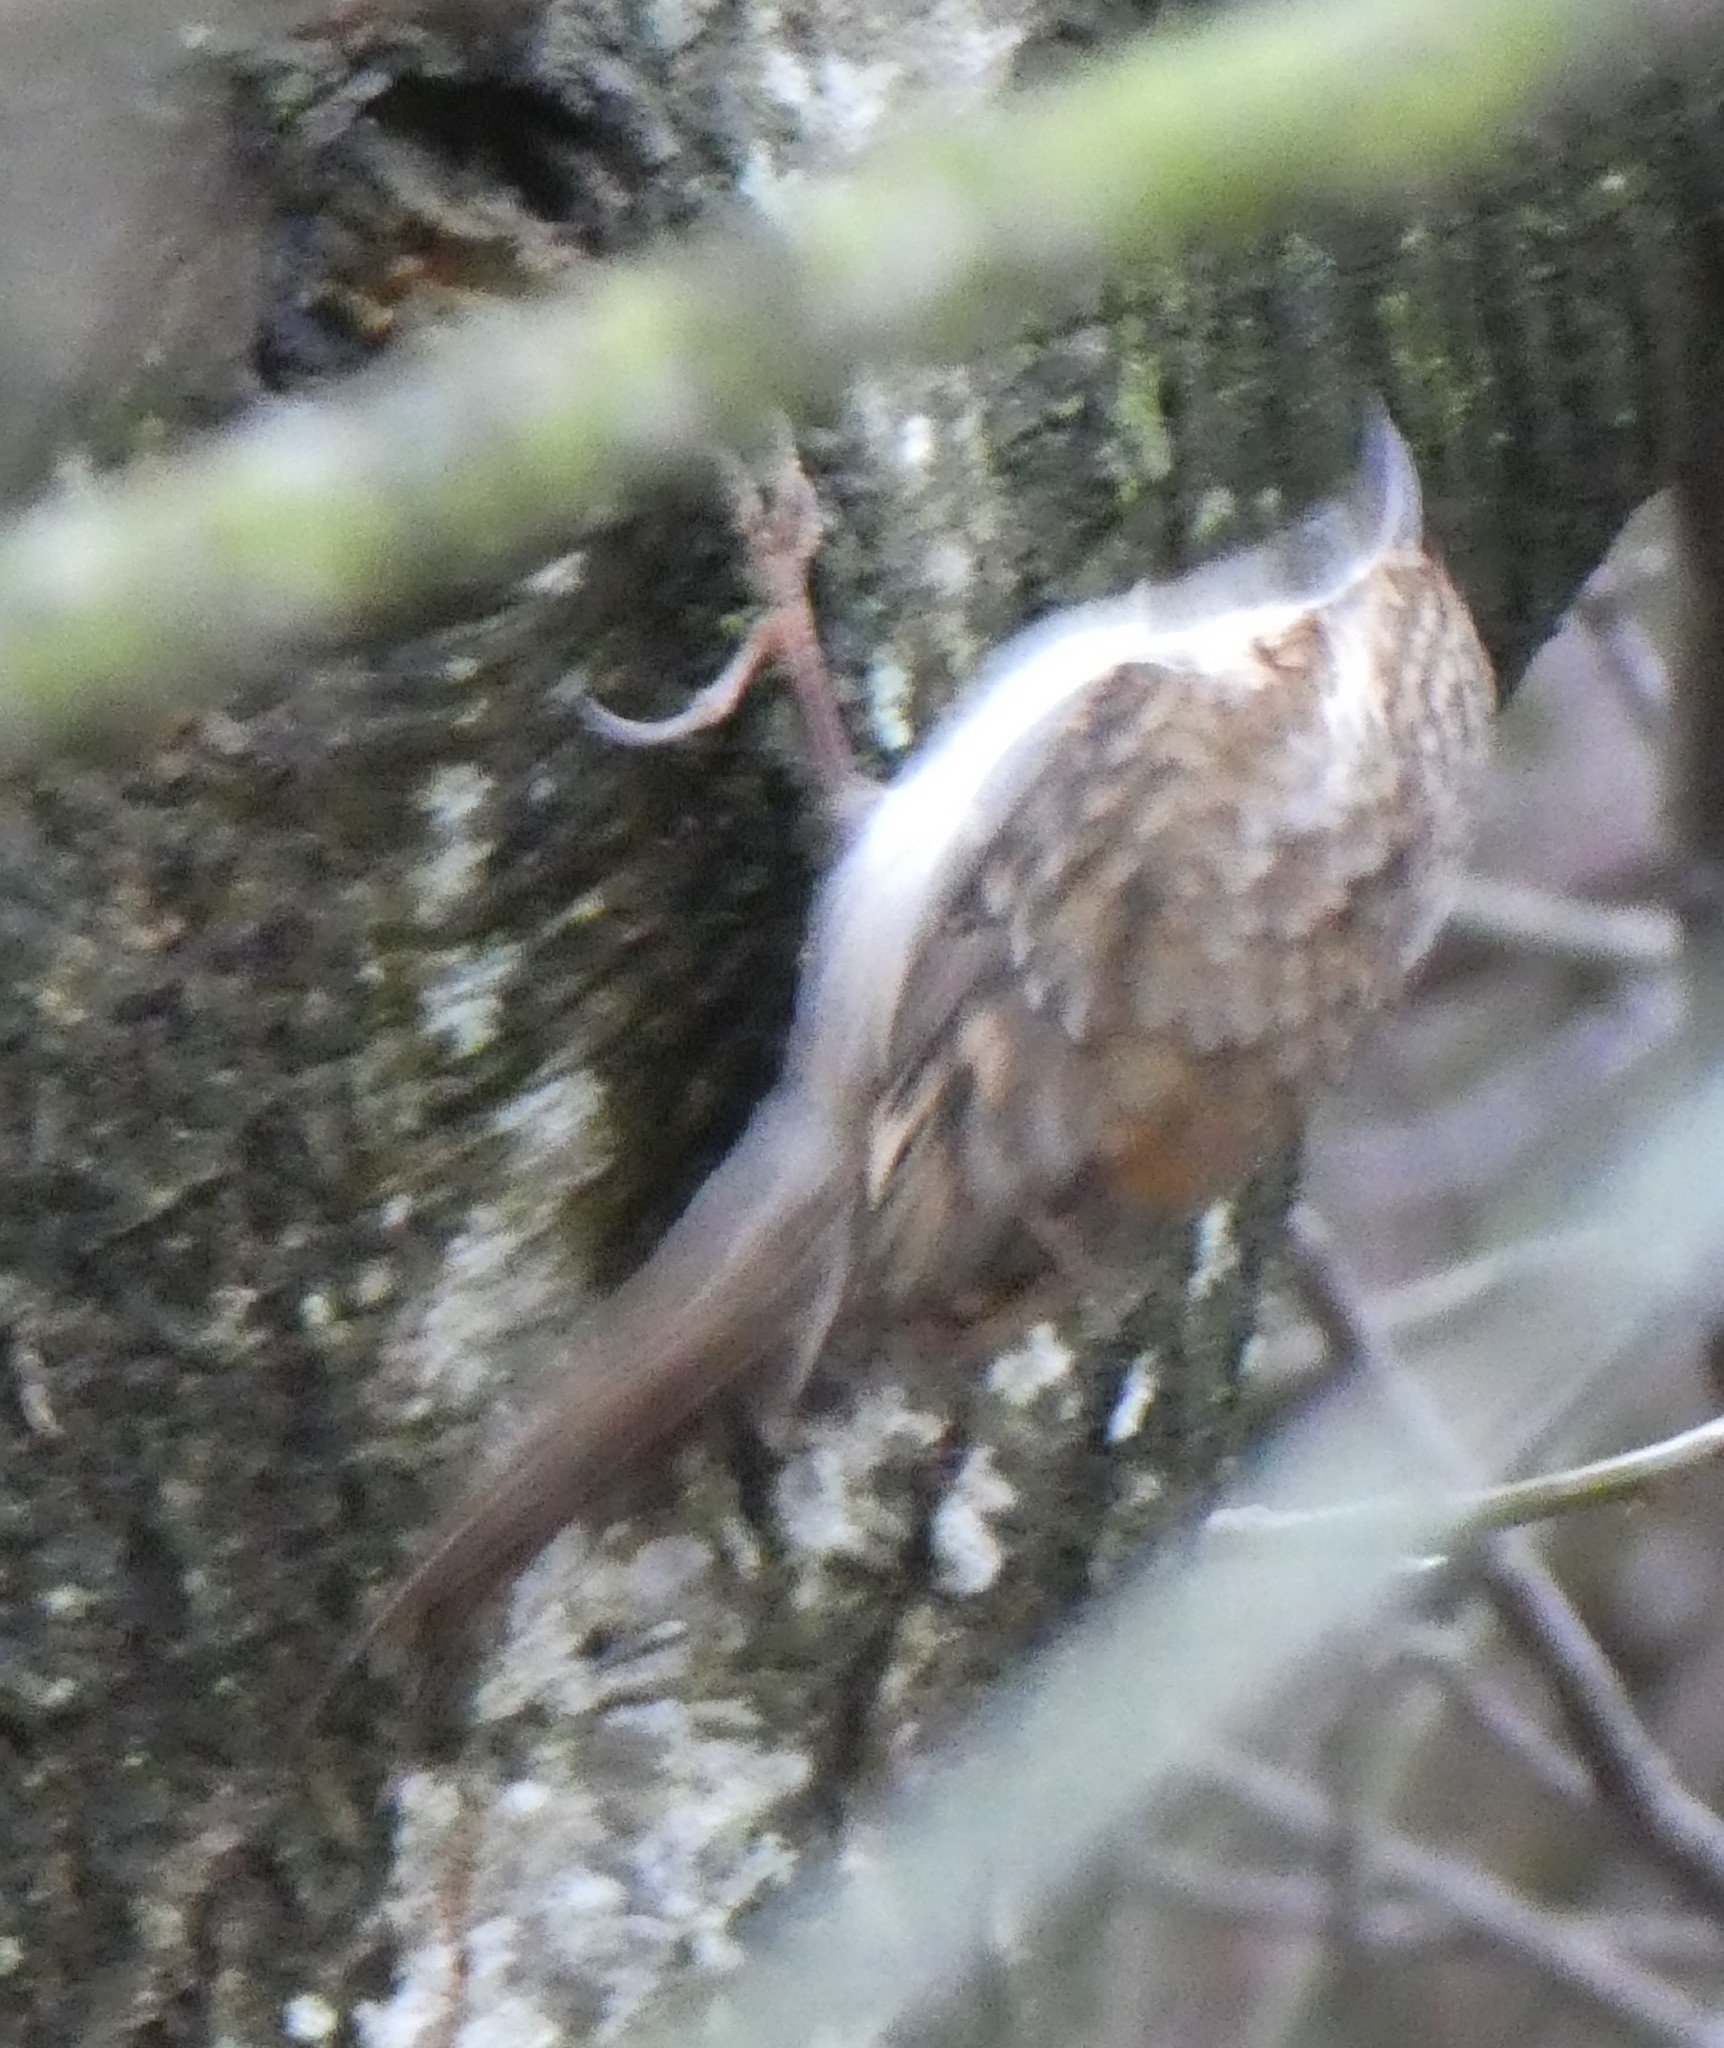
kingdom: Animalia
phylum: Chordata
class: Aves
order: Passeriformes
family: Certhiidae
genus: Certhia
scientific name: Certhia familiaris
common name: Eurasian treecreeper
